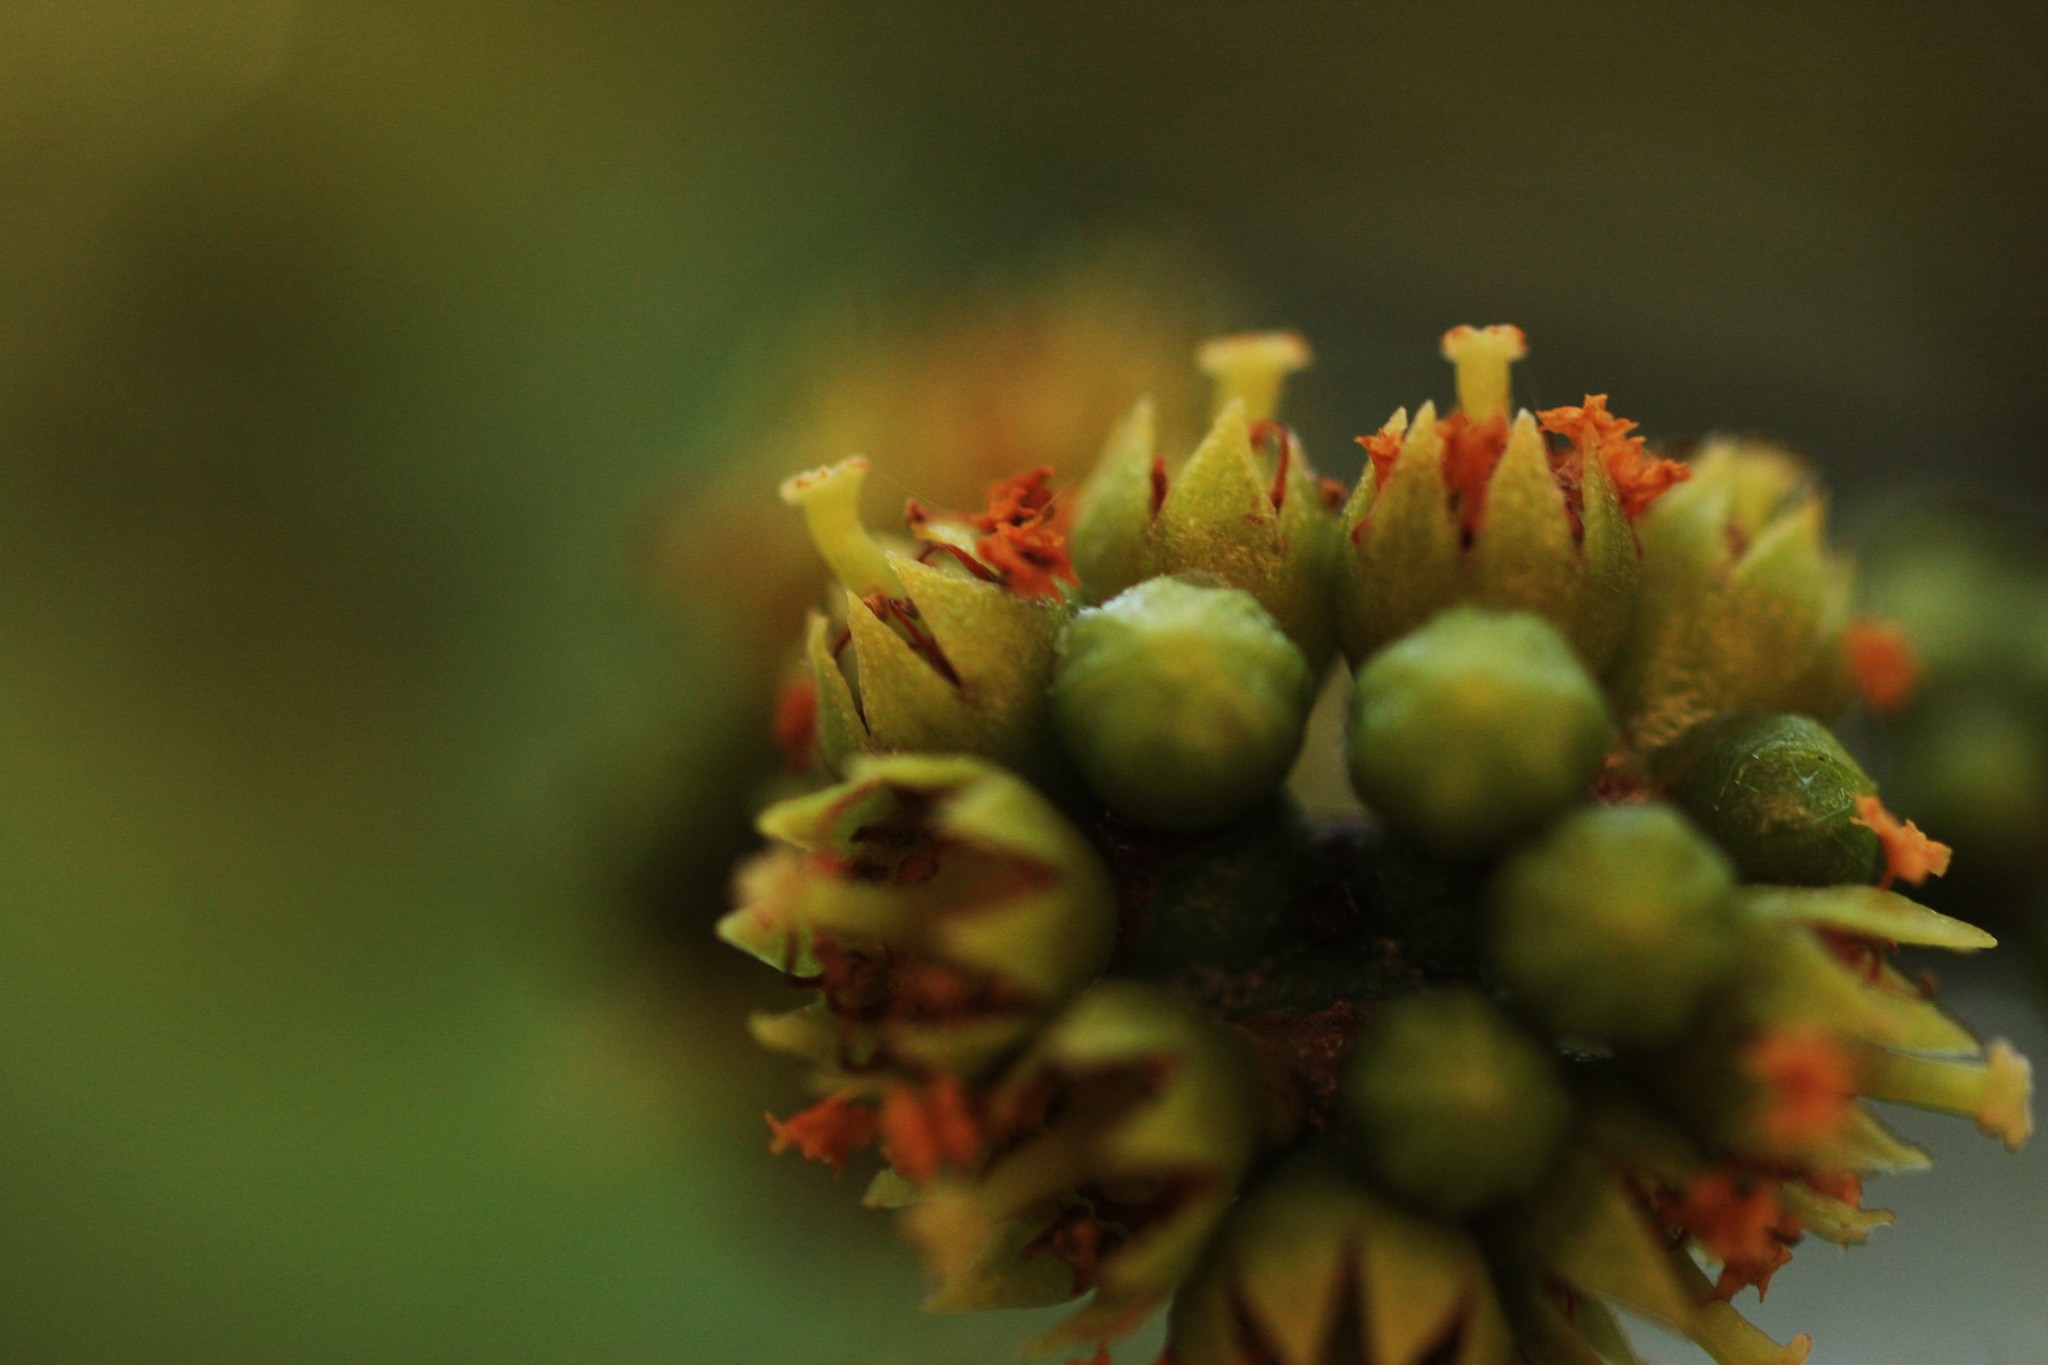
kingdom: Plantae
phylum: Tracheophyta
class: Magnoliopsida
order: Malpighiales
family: Rhizophoraceae
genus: Carallia
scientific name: Carallia brachiata
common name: Carallawood
